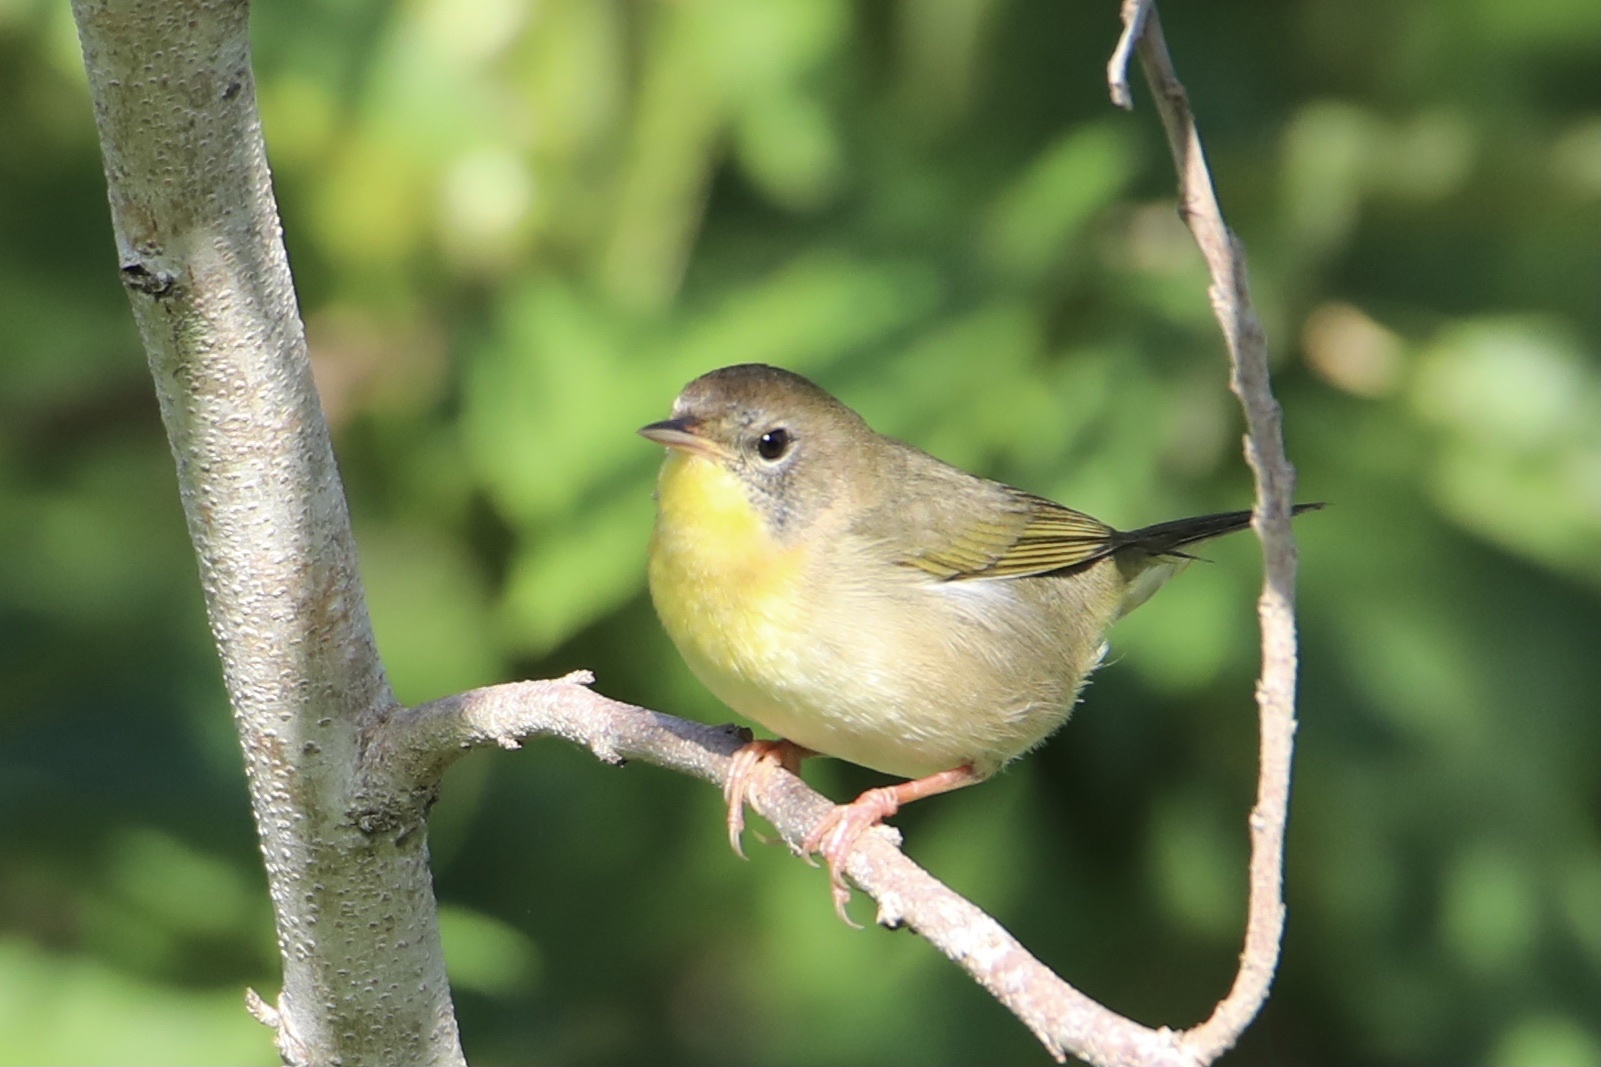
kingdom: Animalia
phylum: Chordata
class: Aves
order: Passeriformes
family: Parulidae
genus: Geothlypis
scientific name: Geothlypis trichas
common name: Common yellowthroat
